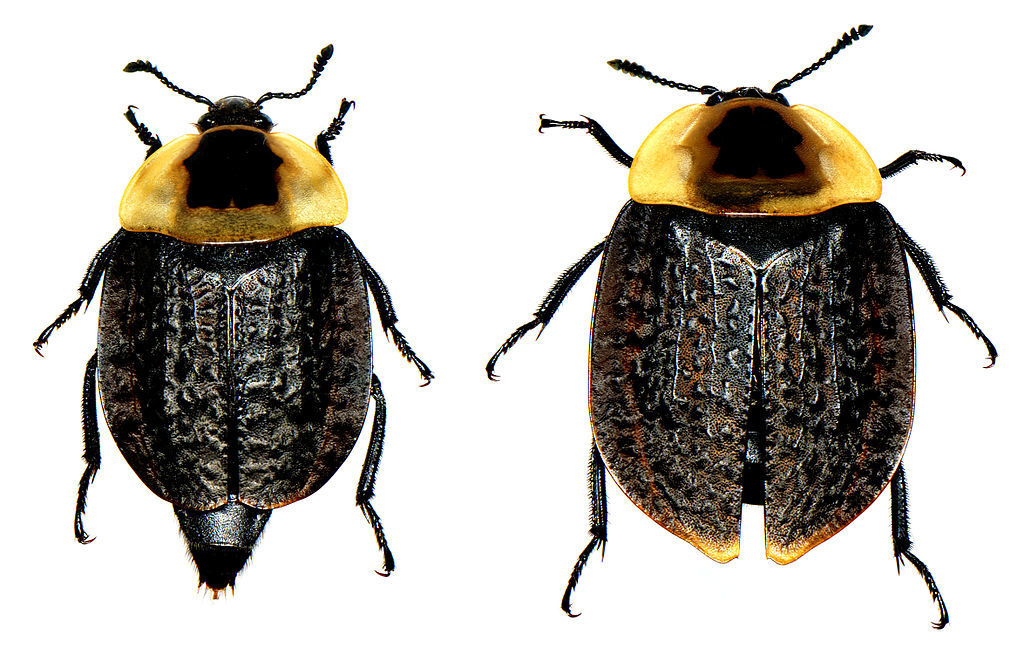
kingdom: Animalia
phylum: Arthropoda
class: Insecta
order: Coleoptera
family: Staphylinidae
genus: Necrophila
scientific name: Necrophila americana
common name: American carrion beetle
